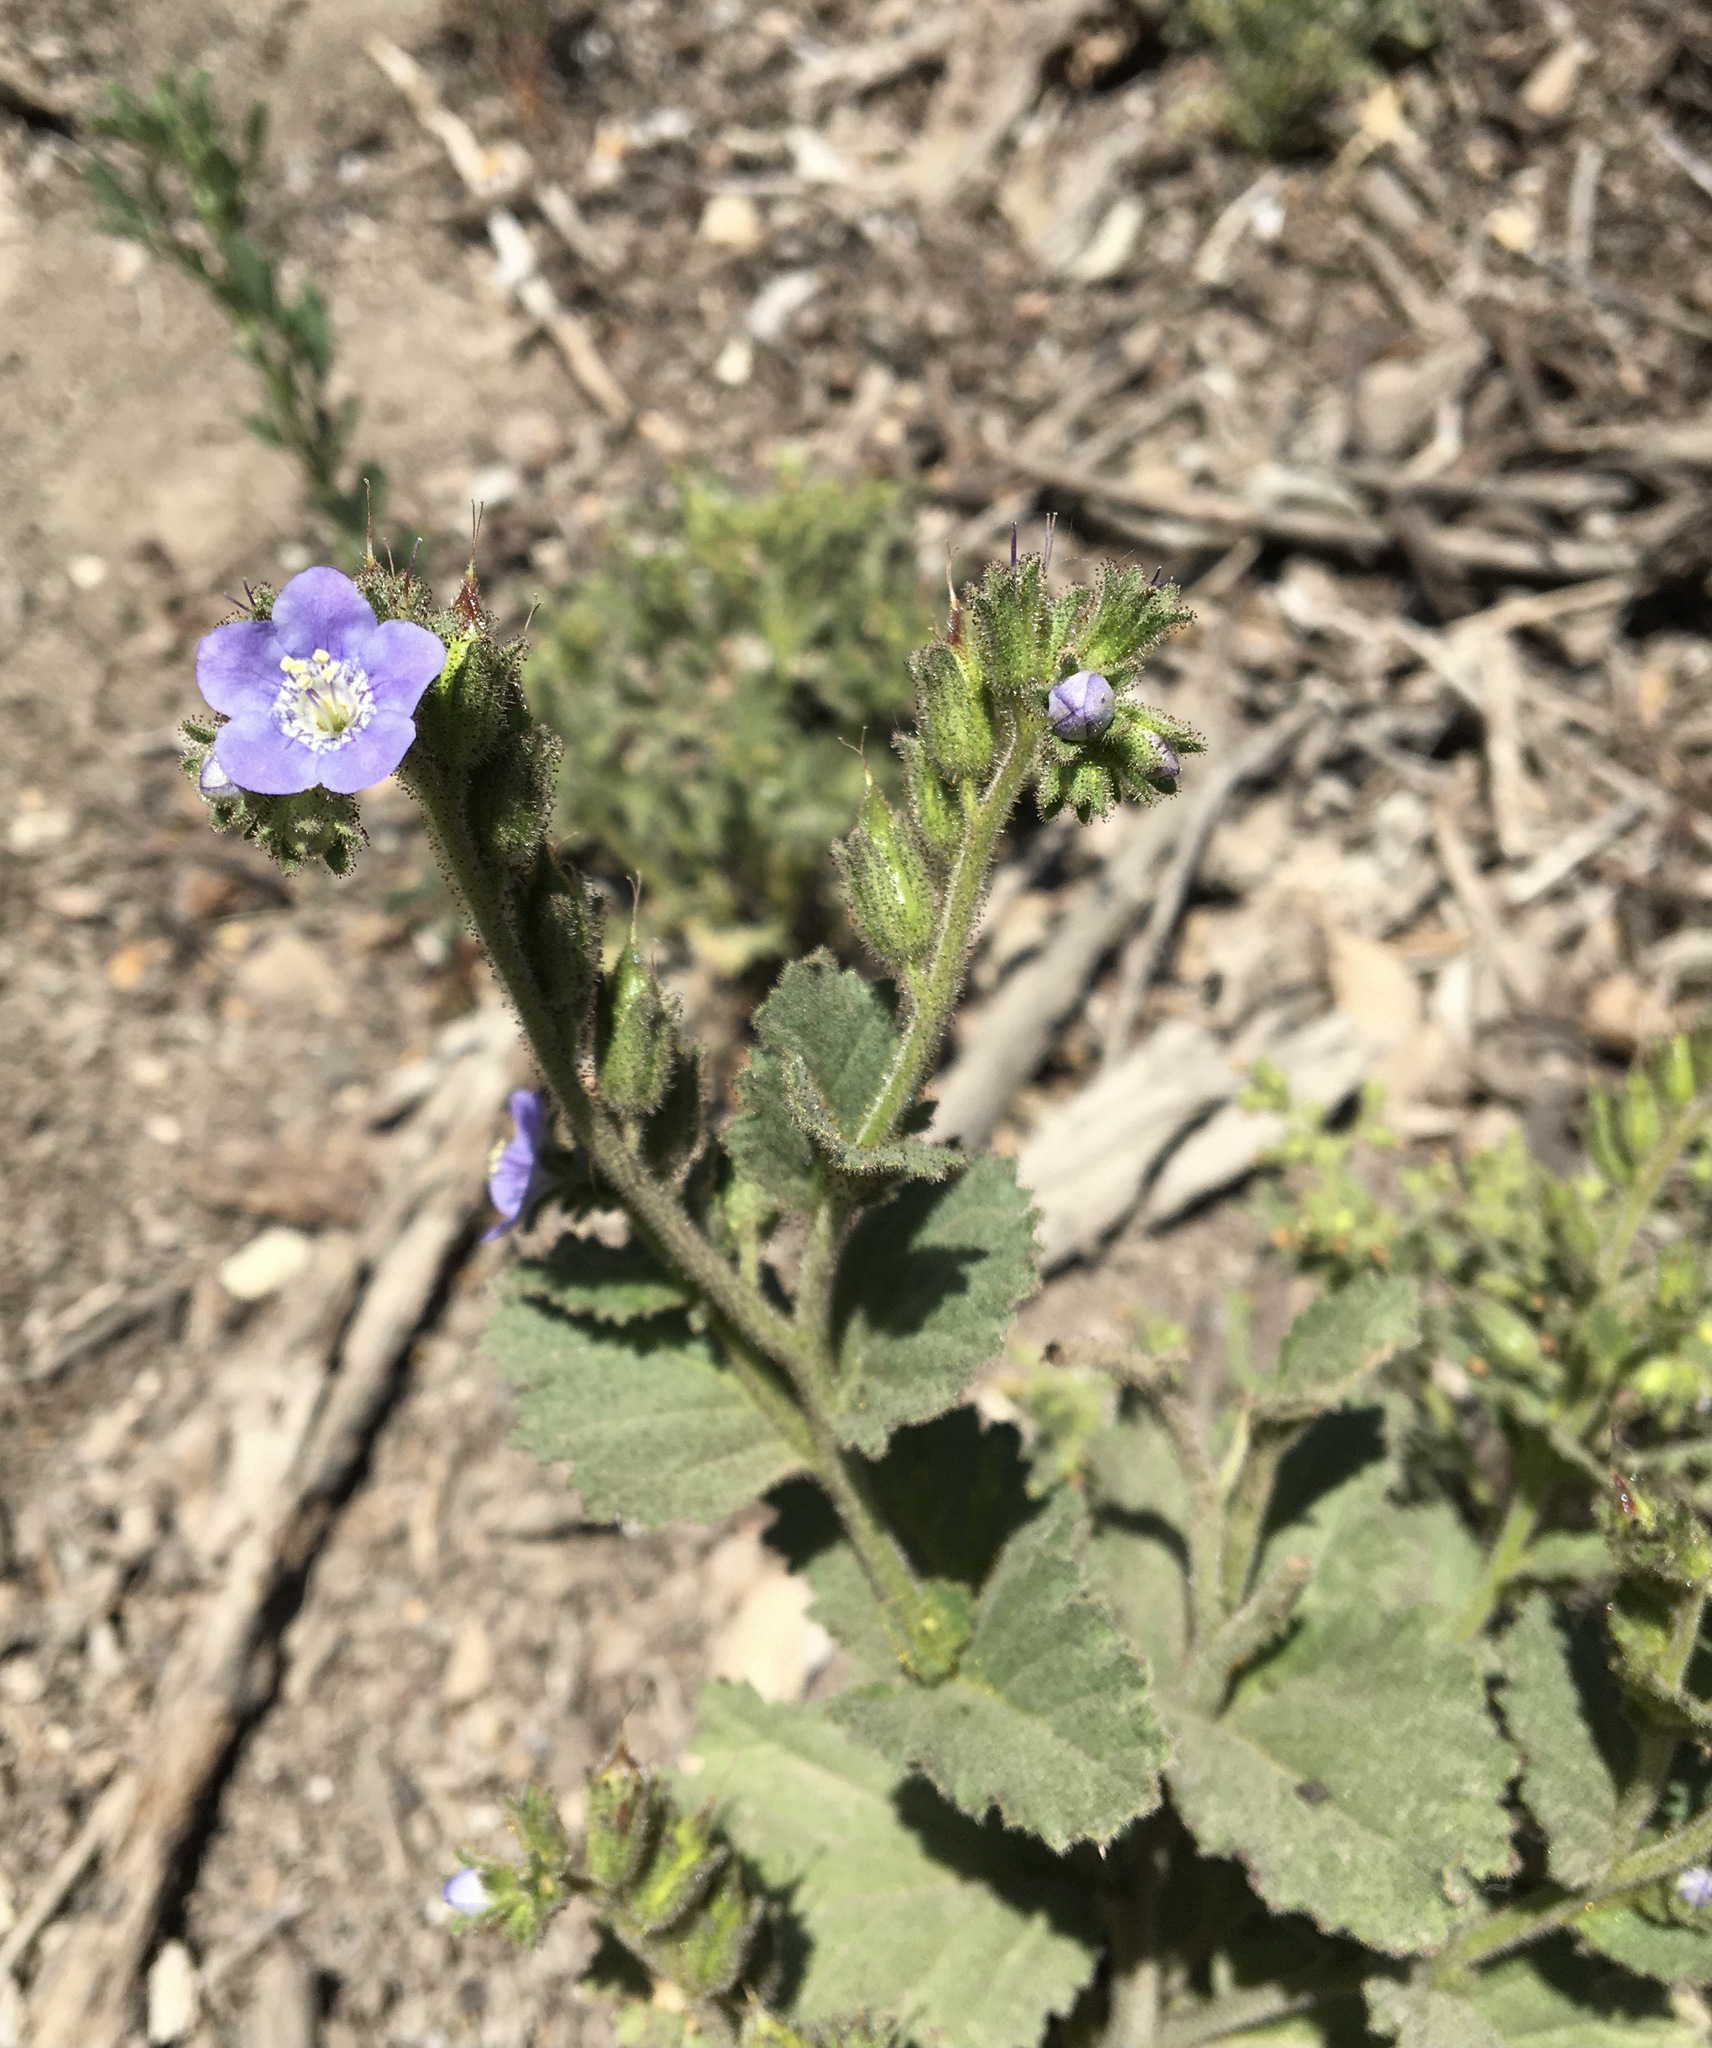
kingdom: Plantae
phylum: Tracheophyta
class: Magnoliopsida
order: Boraginales
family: Hydrophyllaceae
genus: Phacelia
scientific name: Phacelia viscida
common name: Sticky phacelia
